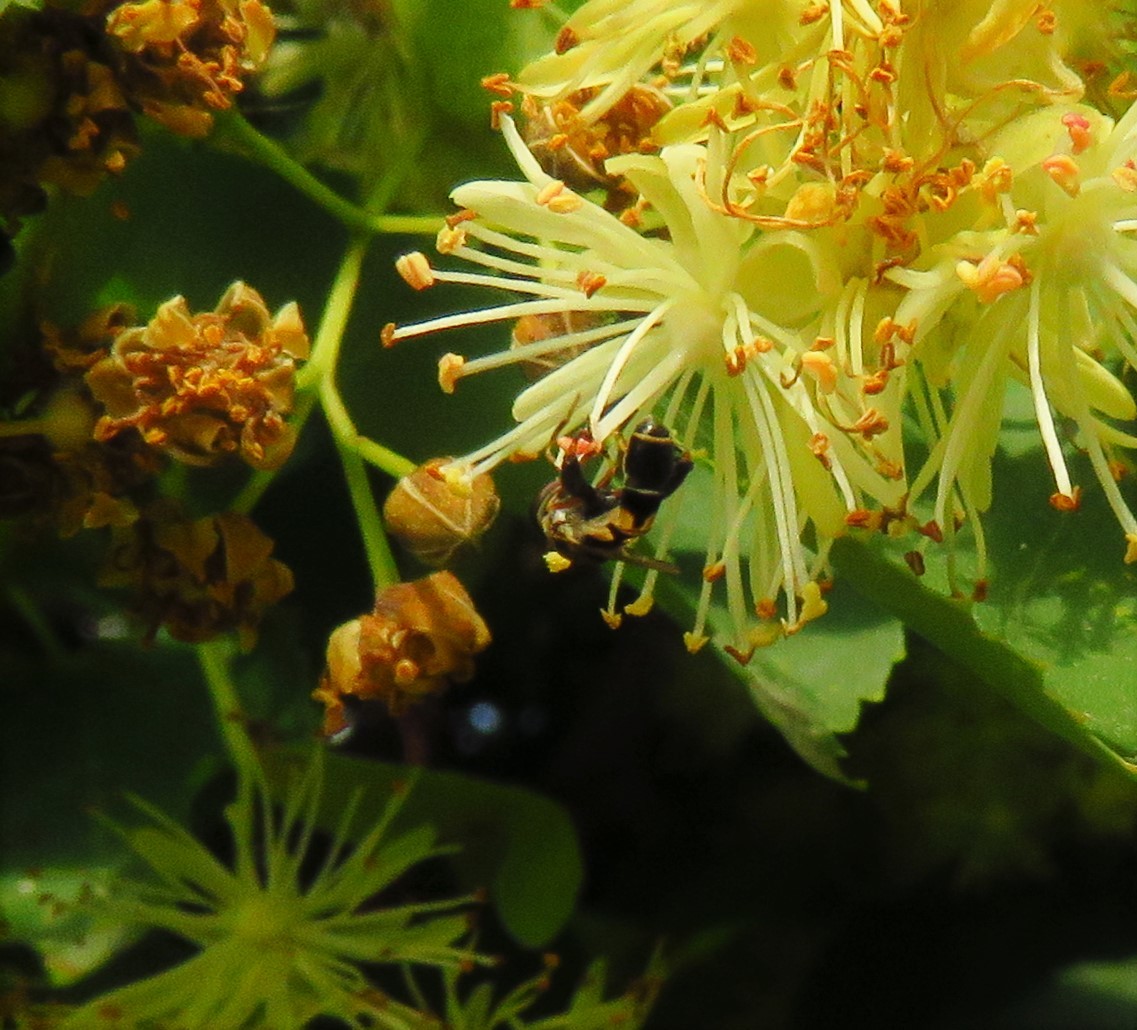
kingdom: Animalia
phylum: Arthropoda
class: Insecta
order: Diptera
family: Syrphidae
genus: Syritta
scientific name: Syritta pipiens
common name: Hover fly
